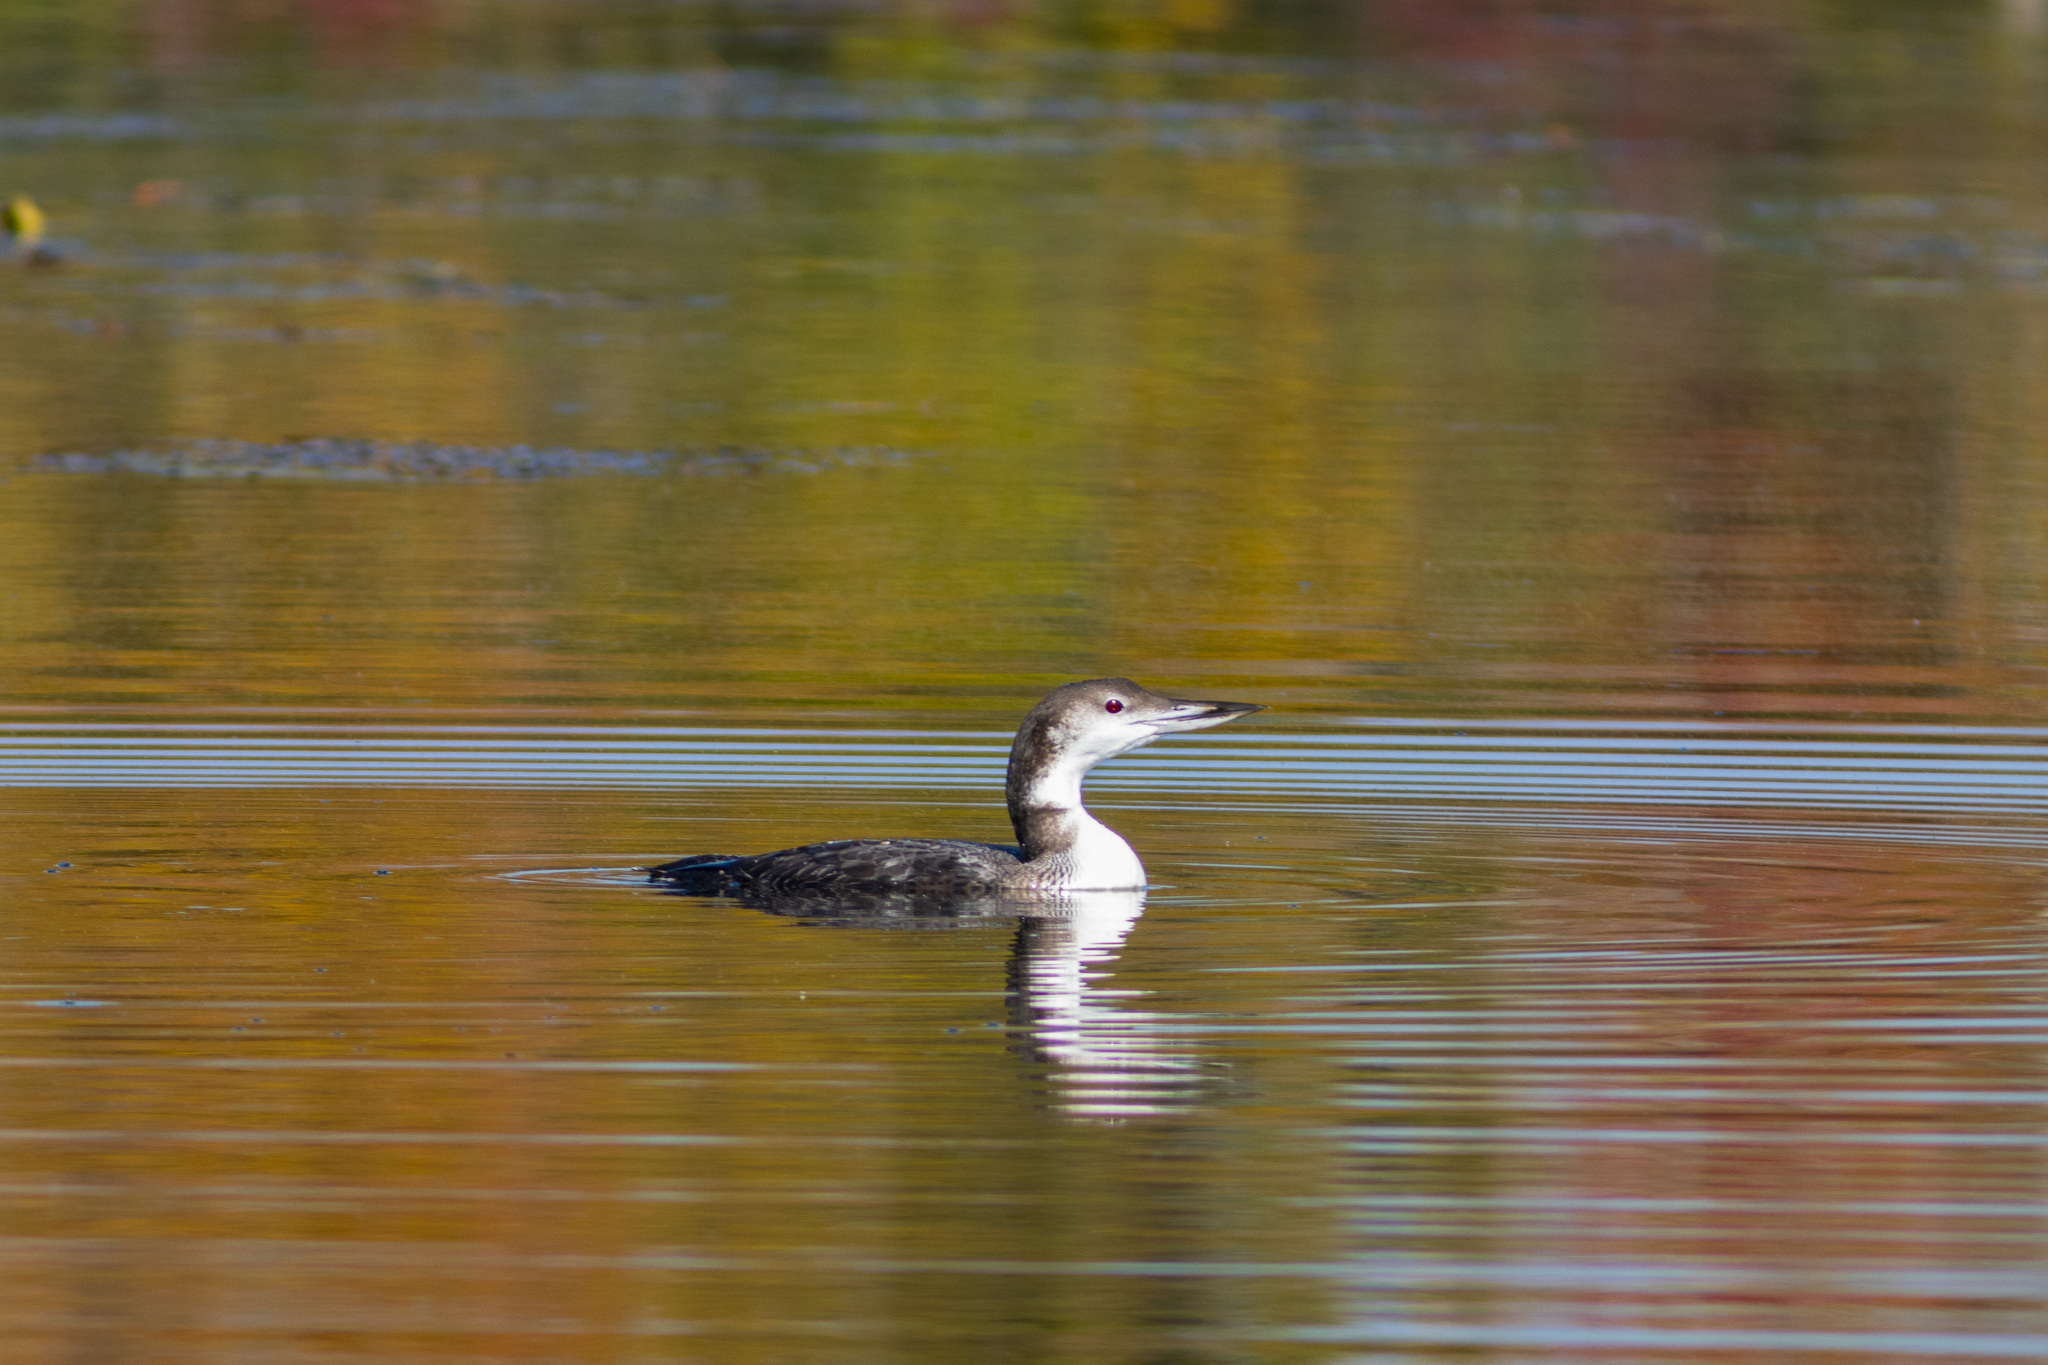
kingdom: Animalia
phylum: Chordata
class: Aves
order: Gaviiformes
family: Gaviidae
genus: Gavia
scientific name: Gavia immer
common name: Common loon
